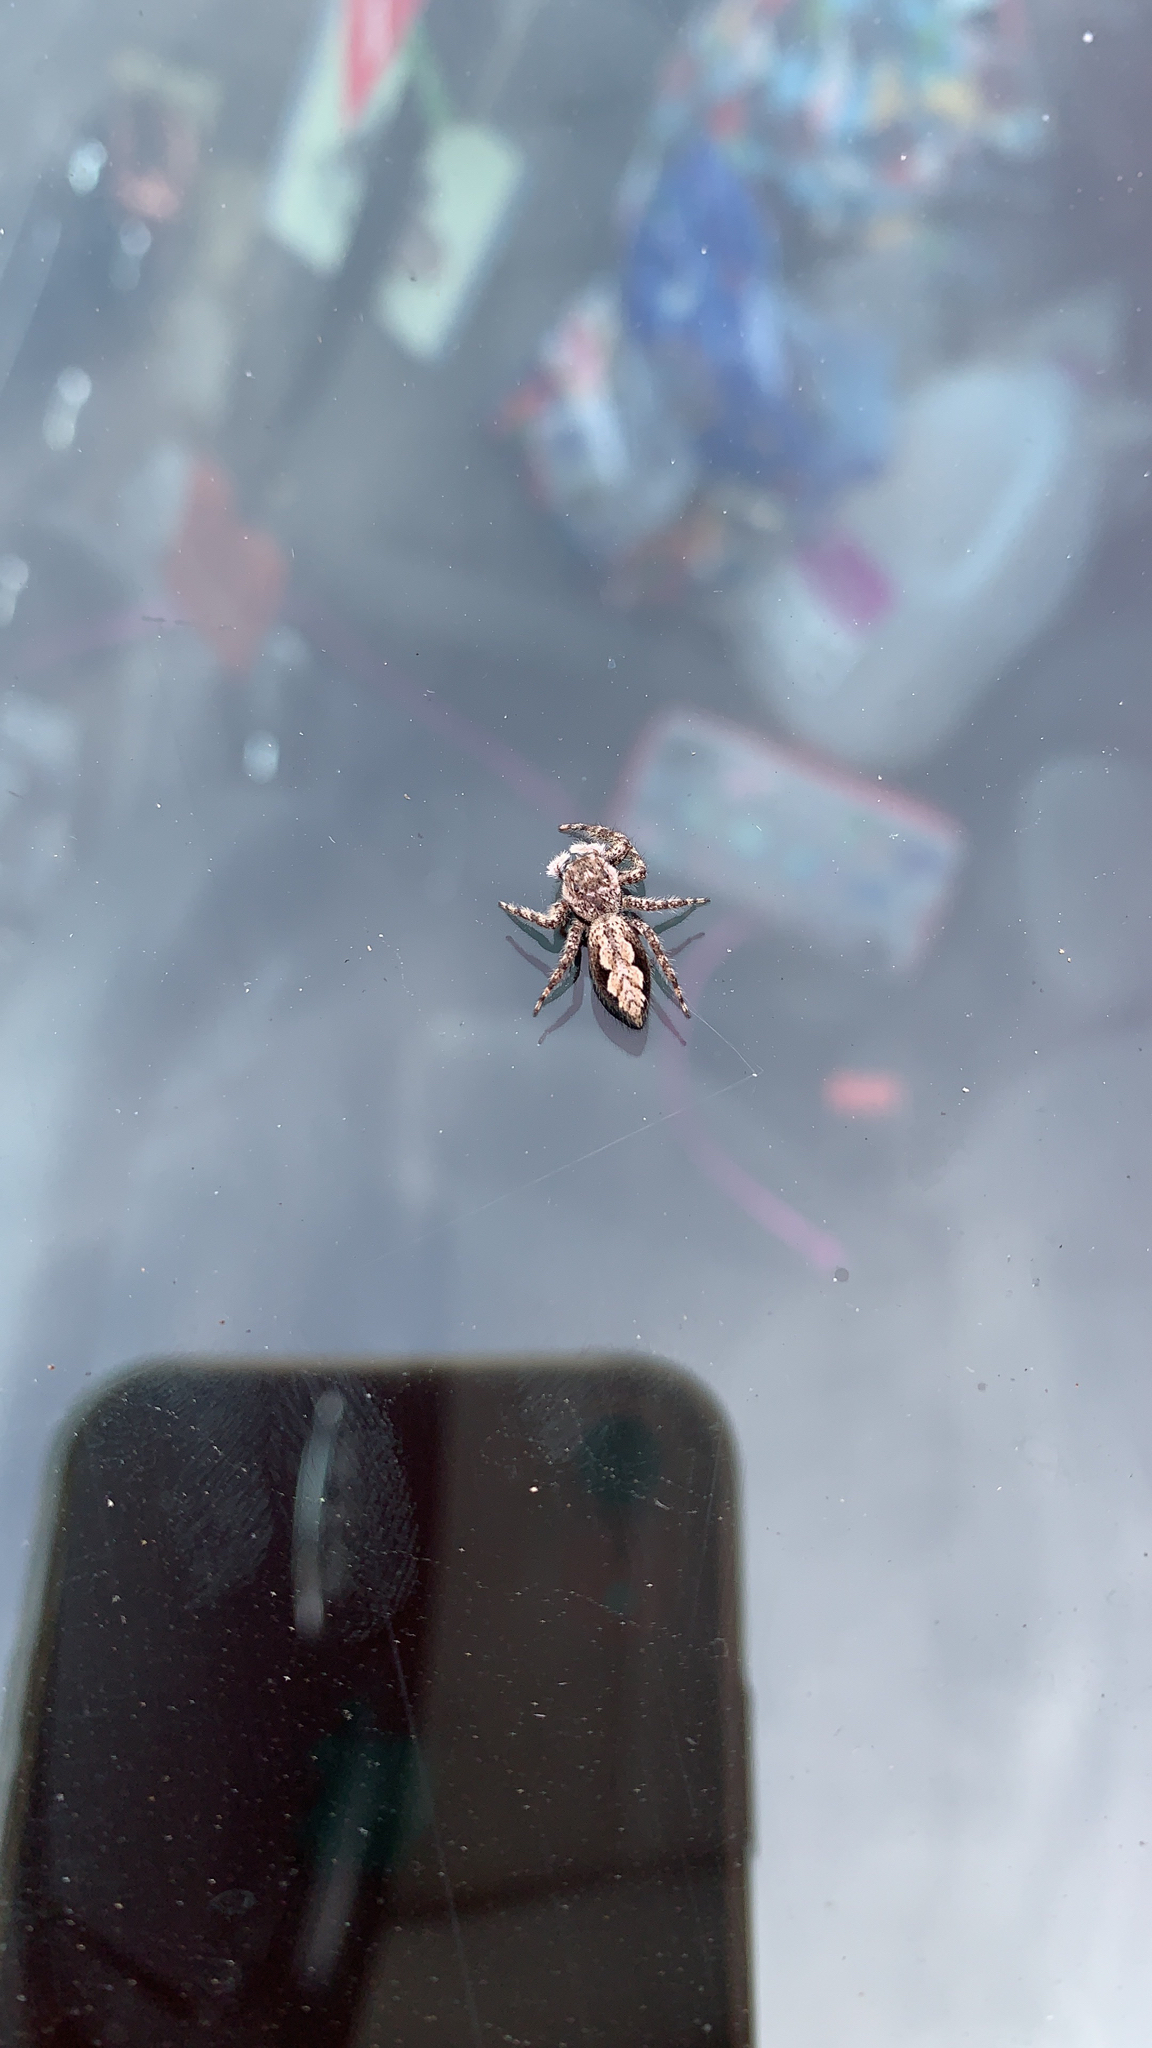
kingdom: Animalia
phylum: Arthropoda
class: Arachnida
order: Araneae
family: Salticidae
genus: Platycryptus
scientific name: Platycryptus undatus
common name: Tan jumping spider
